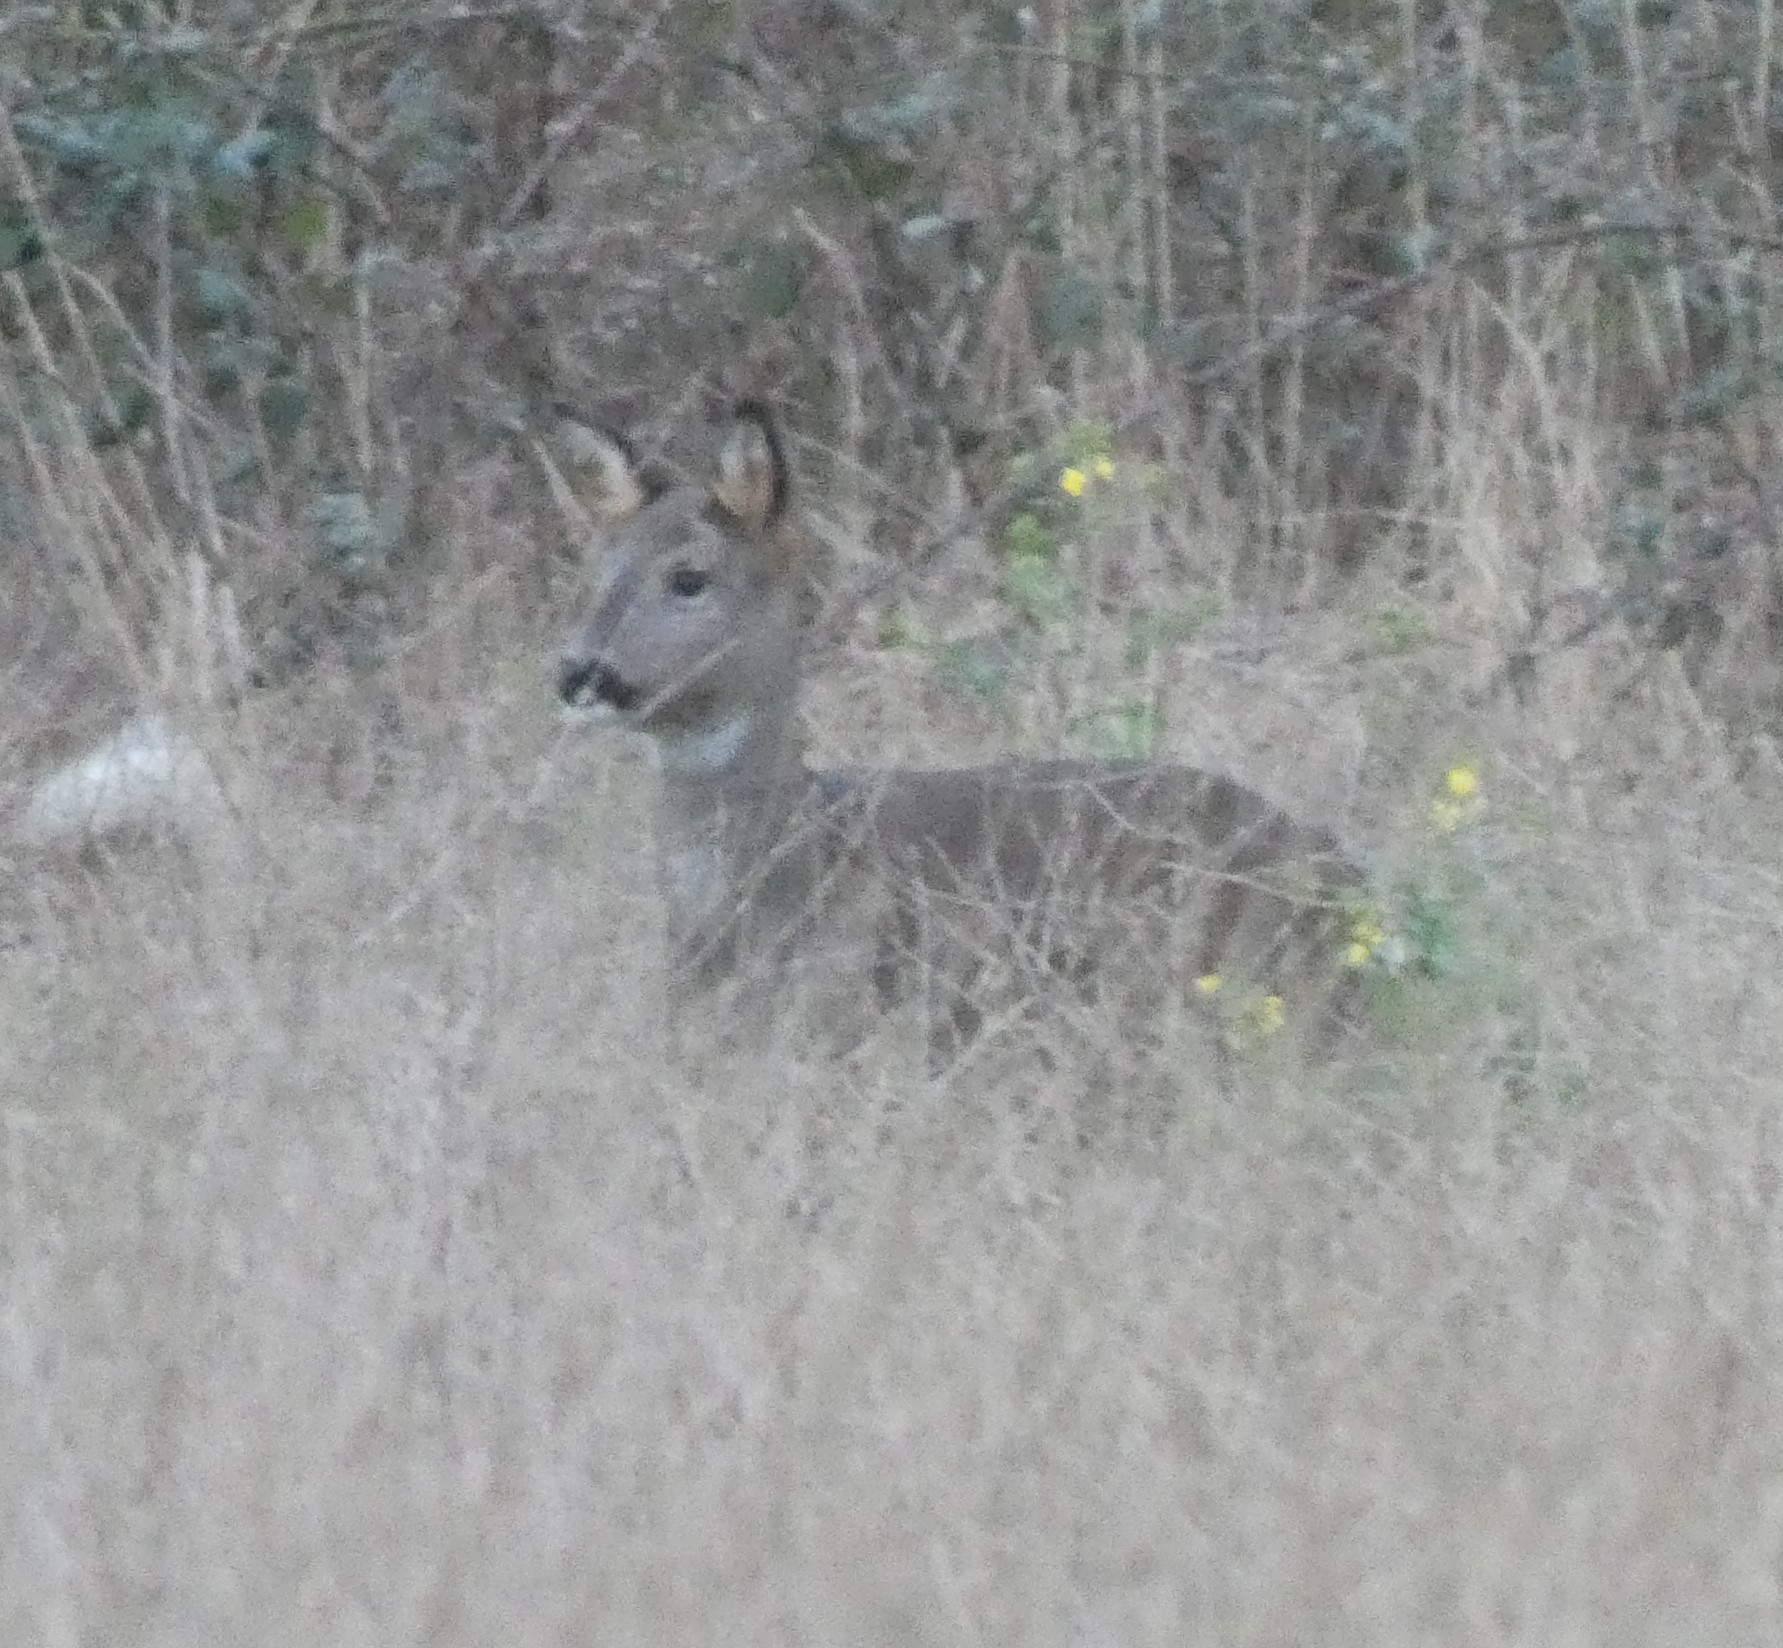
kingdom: Animalia
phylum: Chordata
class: Mammalia
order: Artiodactyla
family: Cervidae
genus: Capreolus
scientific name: Capreolus capreolus
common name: Western roe deer
